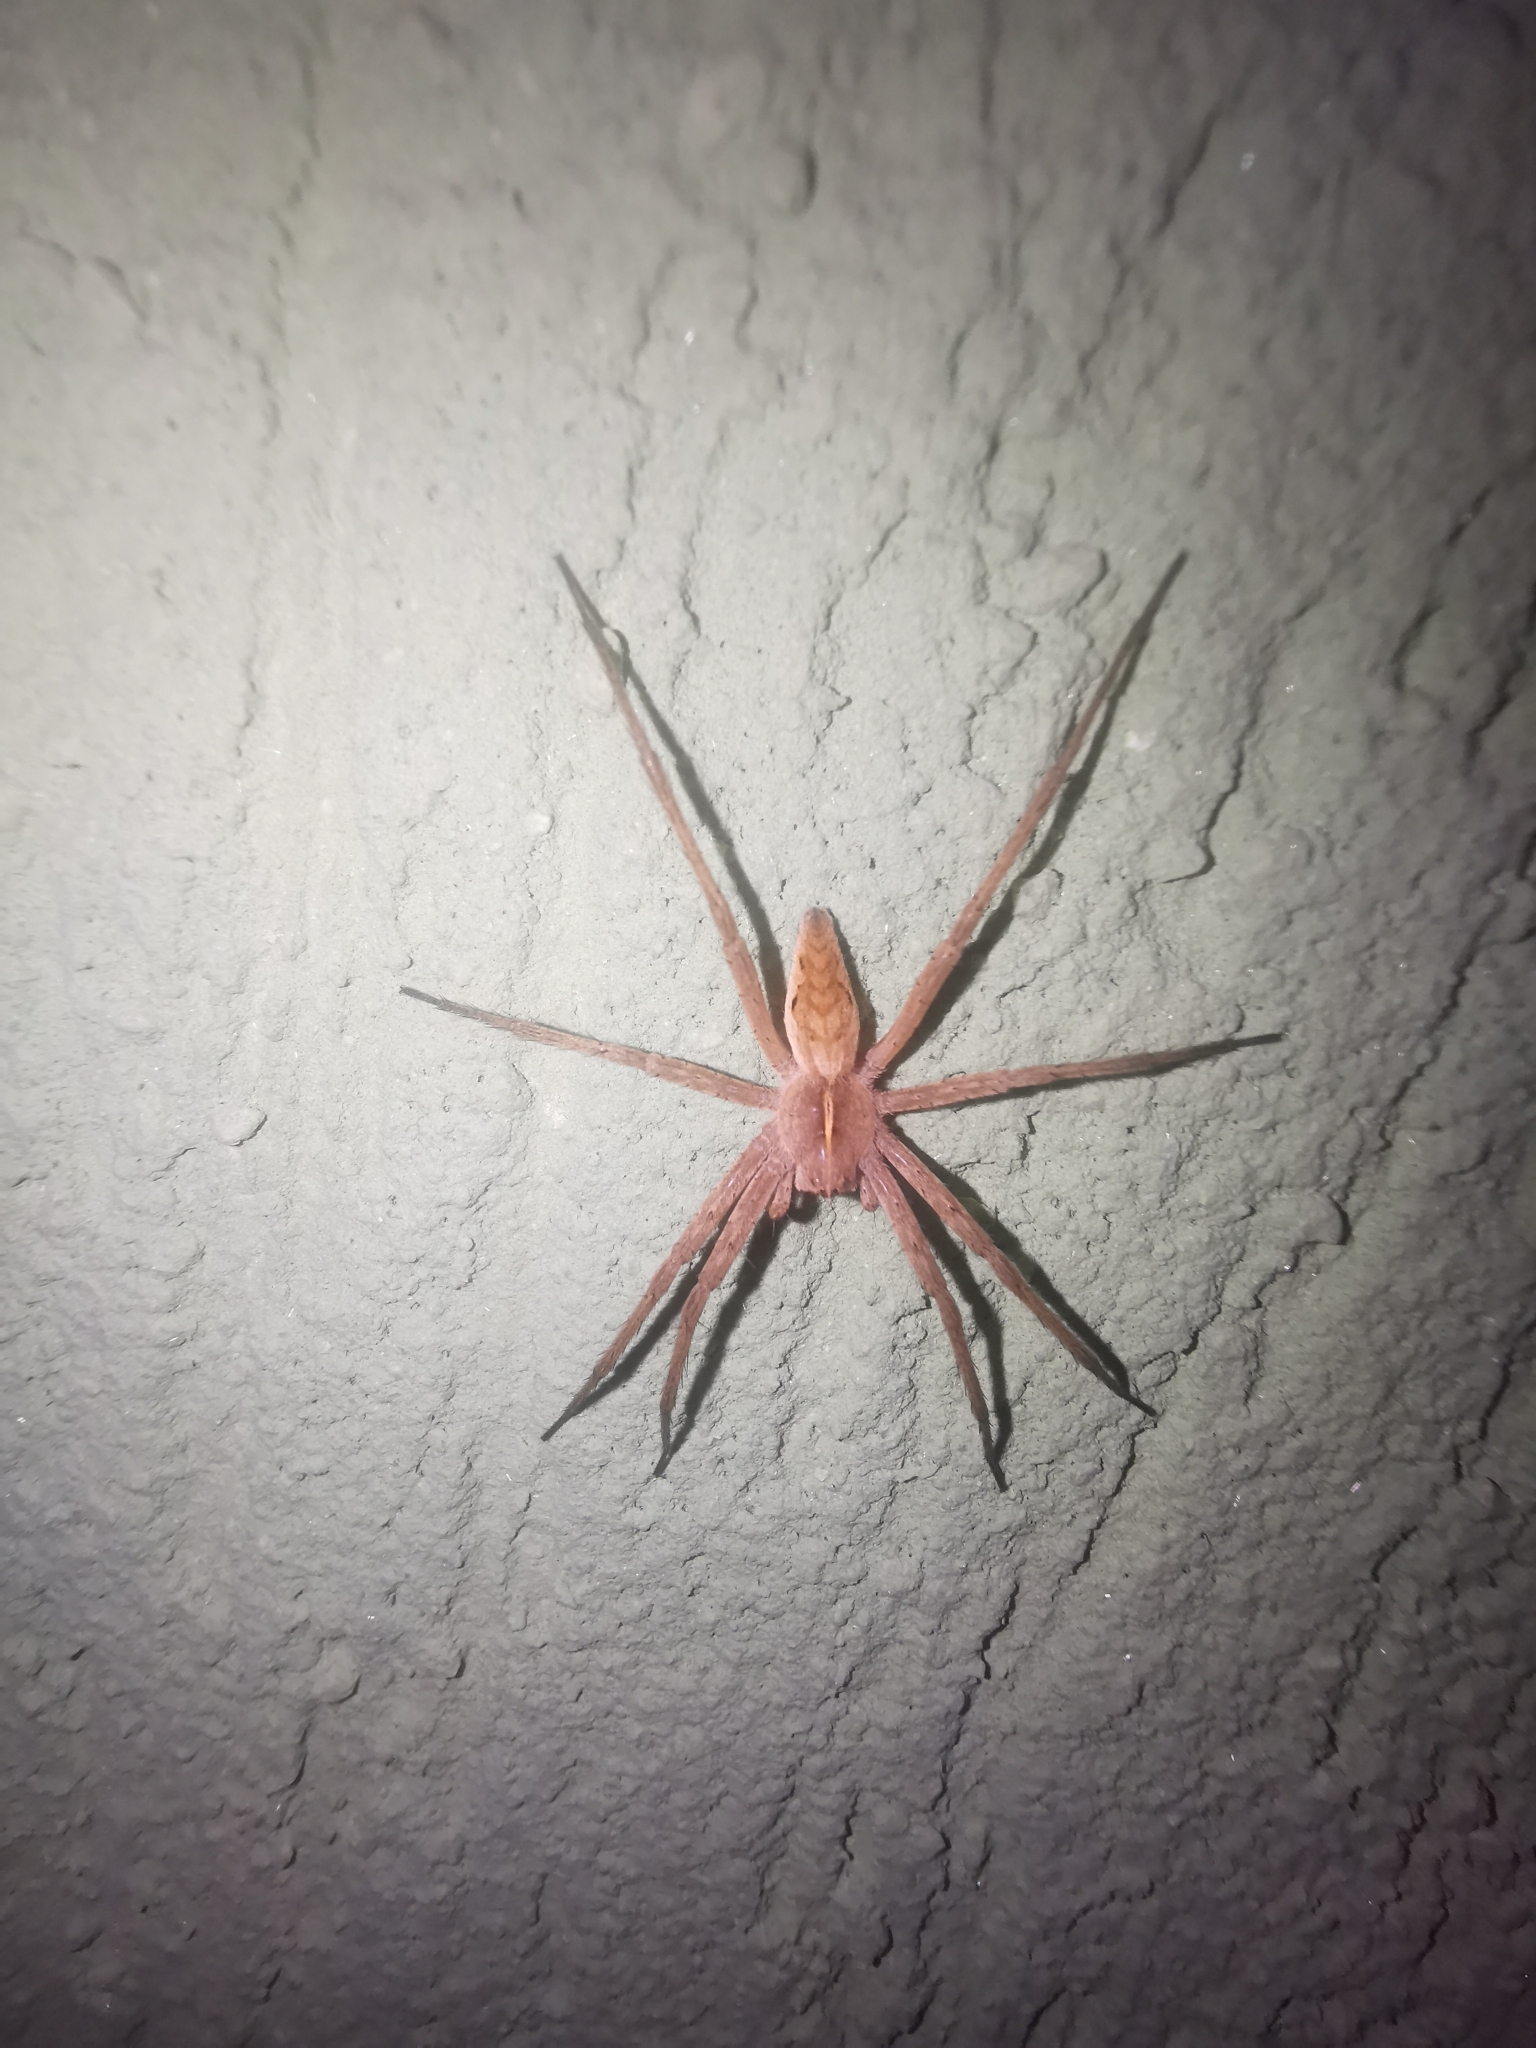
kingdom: Animalia
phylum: Arthropoda
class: Arachnida
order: Araneae
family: Pisauridae
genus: Pisaura
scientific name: Pisaura mirabilis
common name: Tent spider
